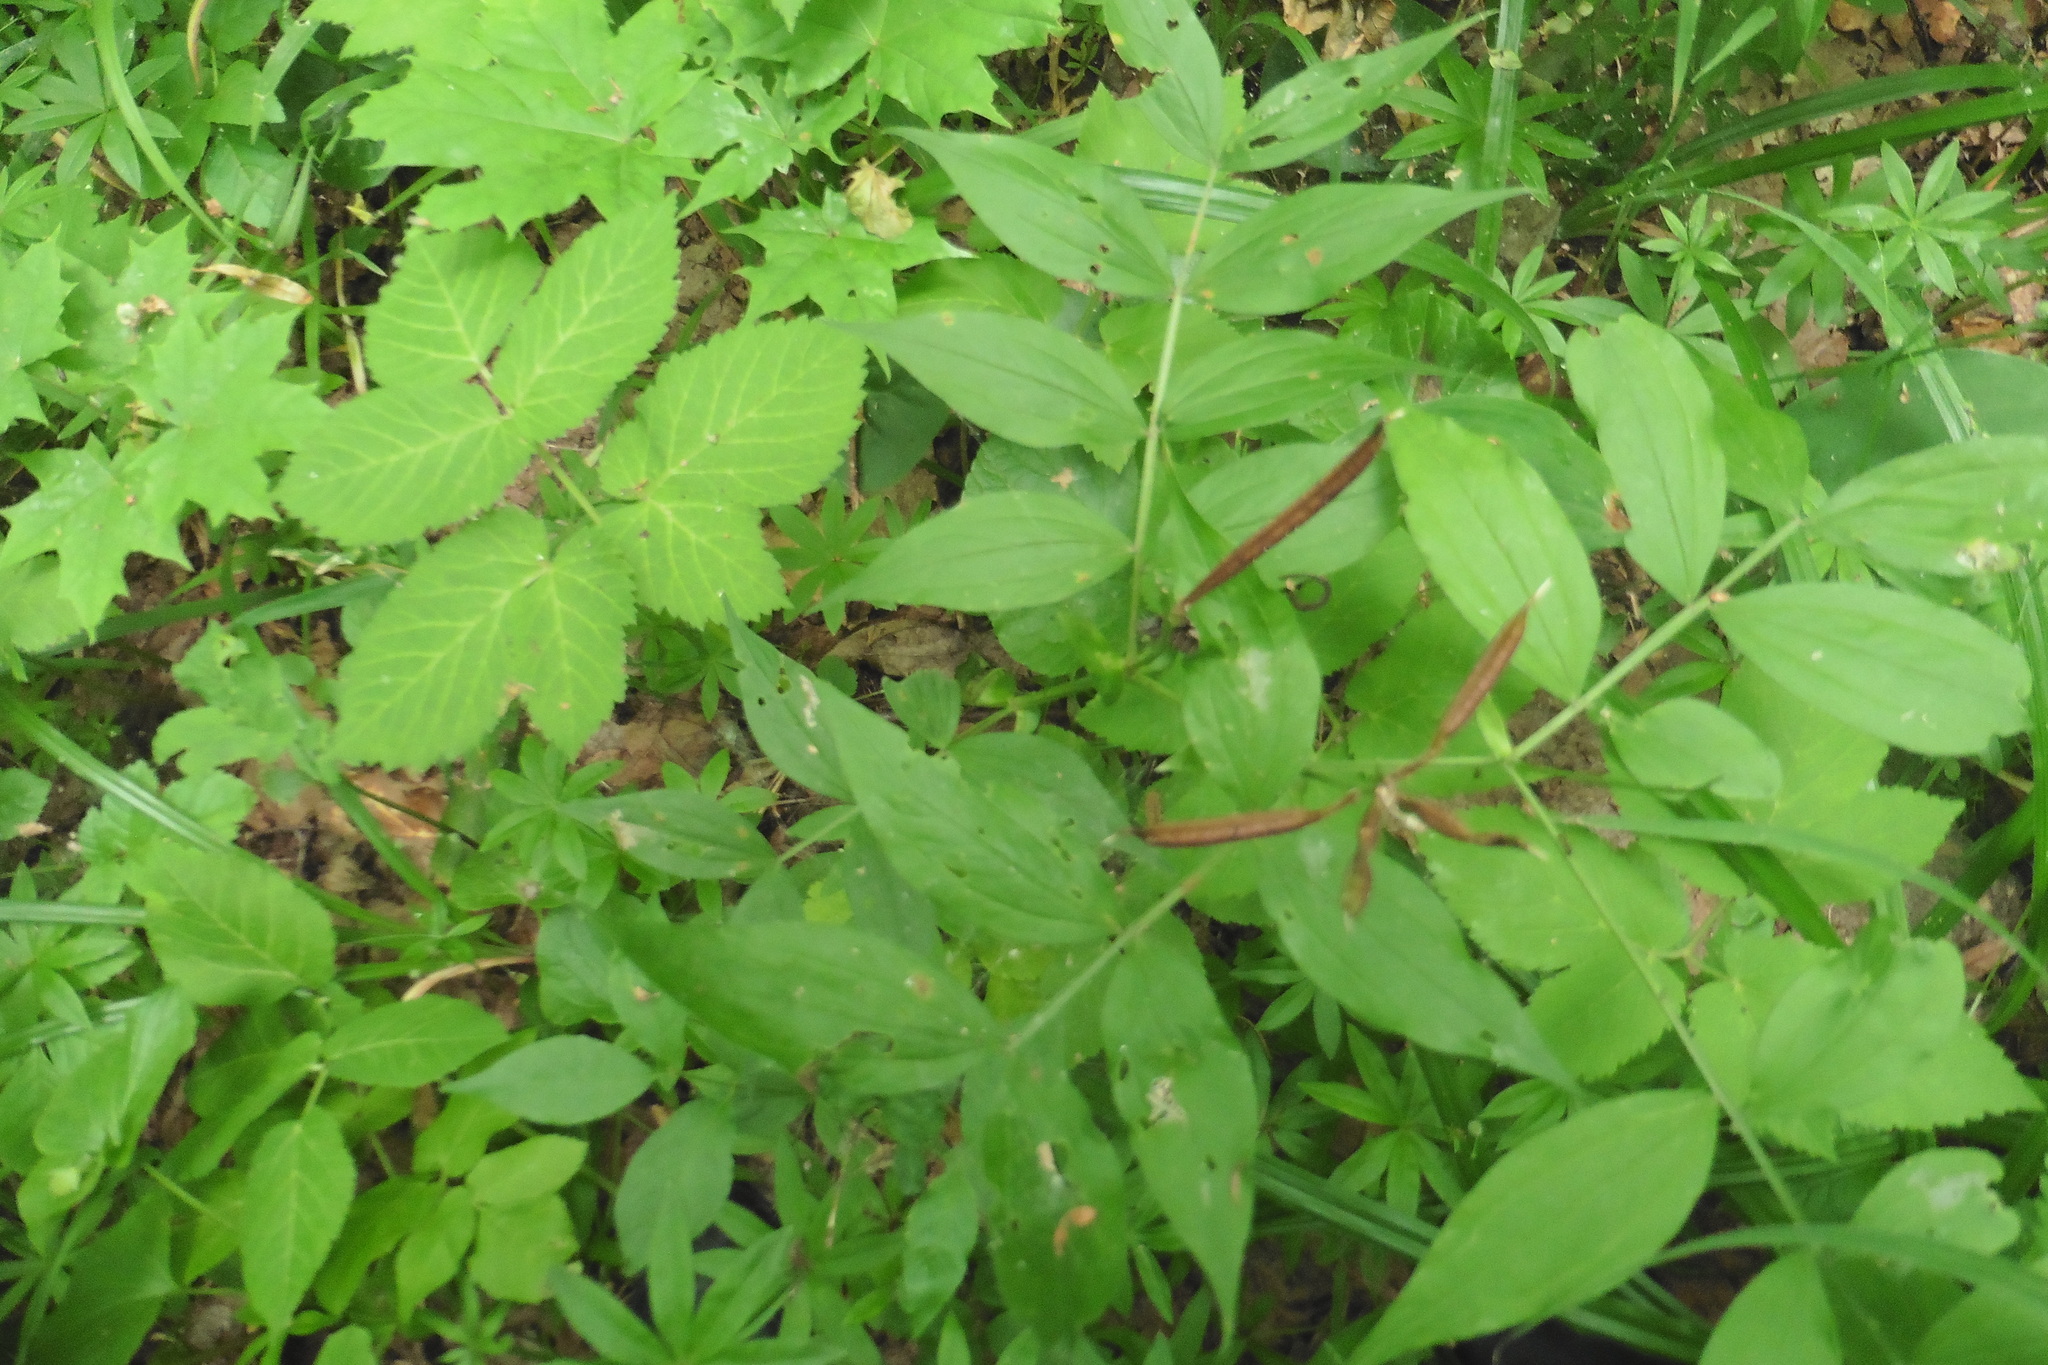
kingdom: Plantae
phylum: Tracheophyta
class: Magnoliopsida
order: Fabales
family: Fabaceae
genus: Lathyrus
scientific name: Lathyrus vernus
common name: Spring pea
